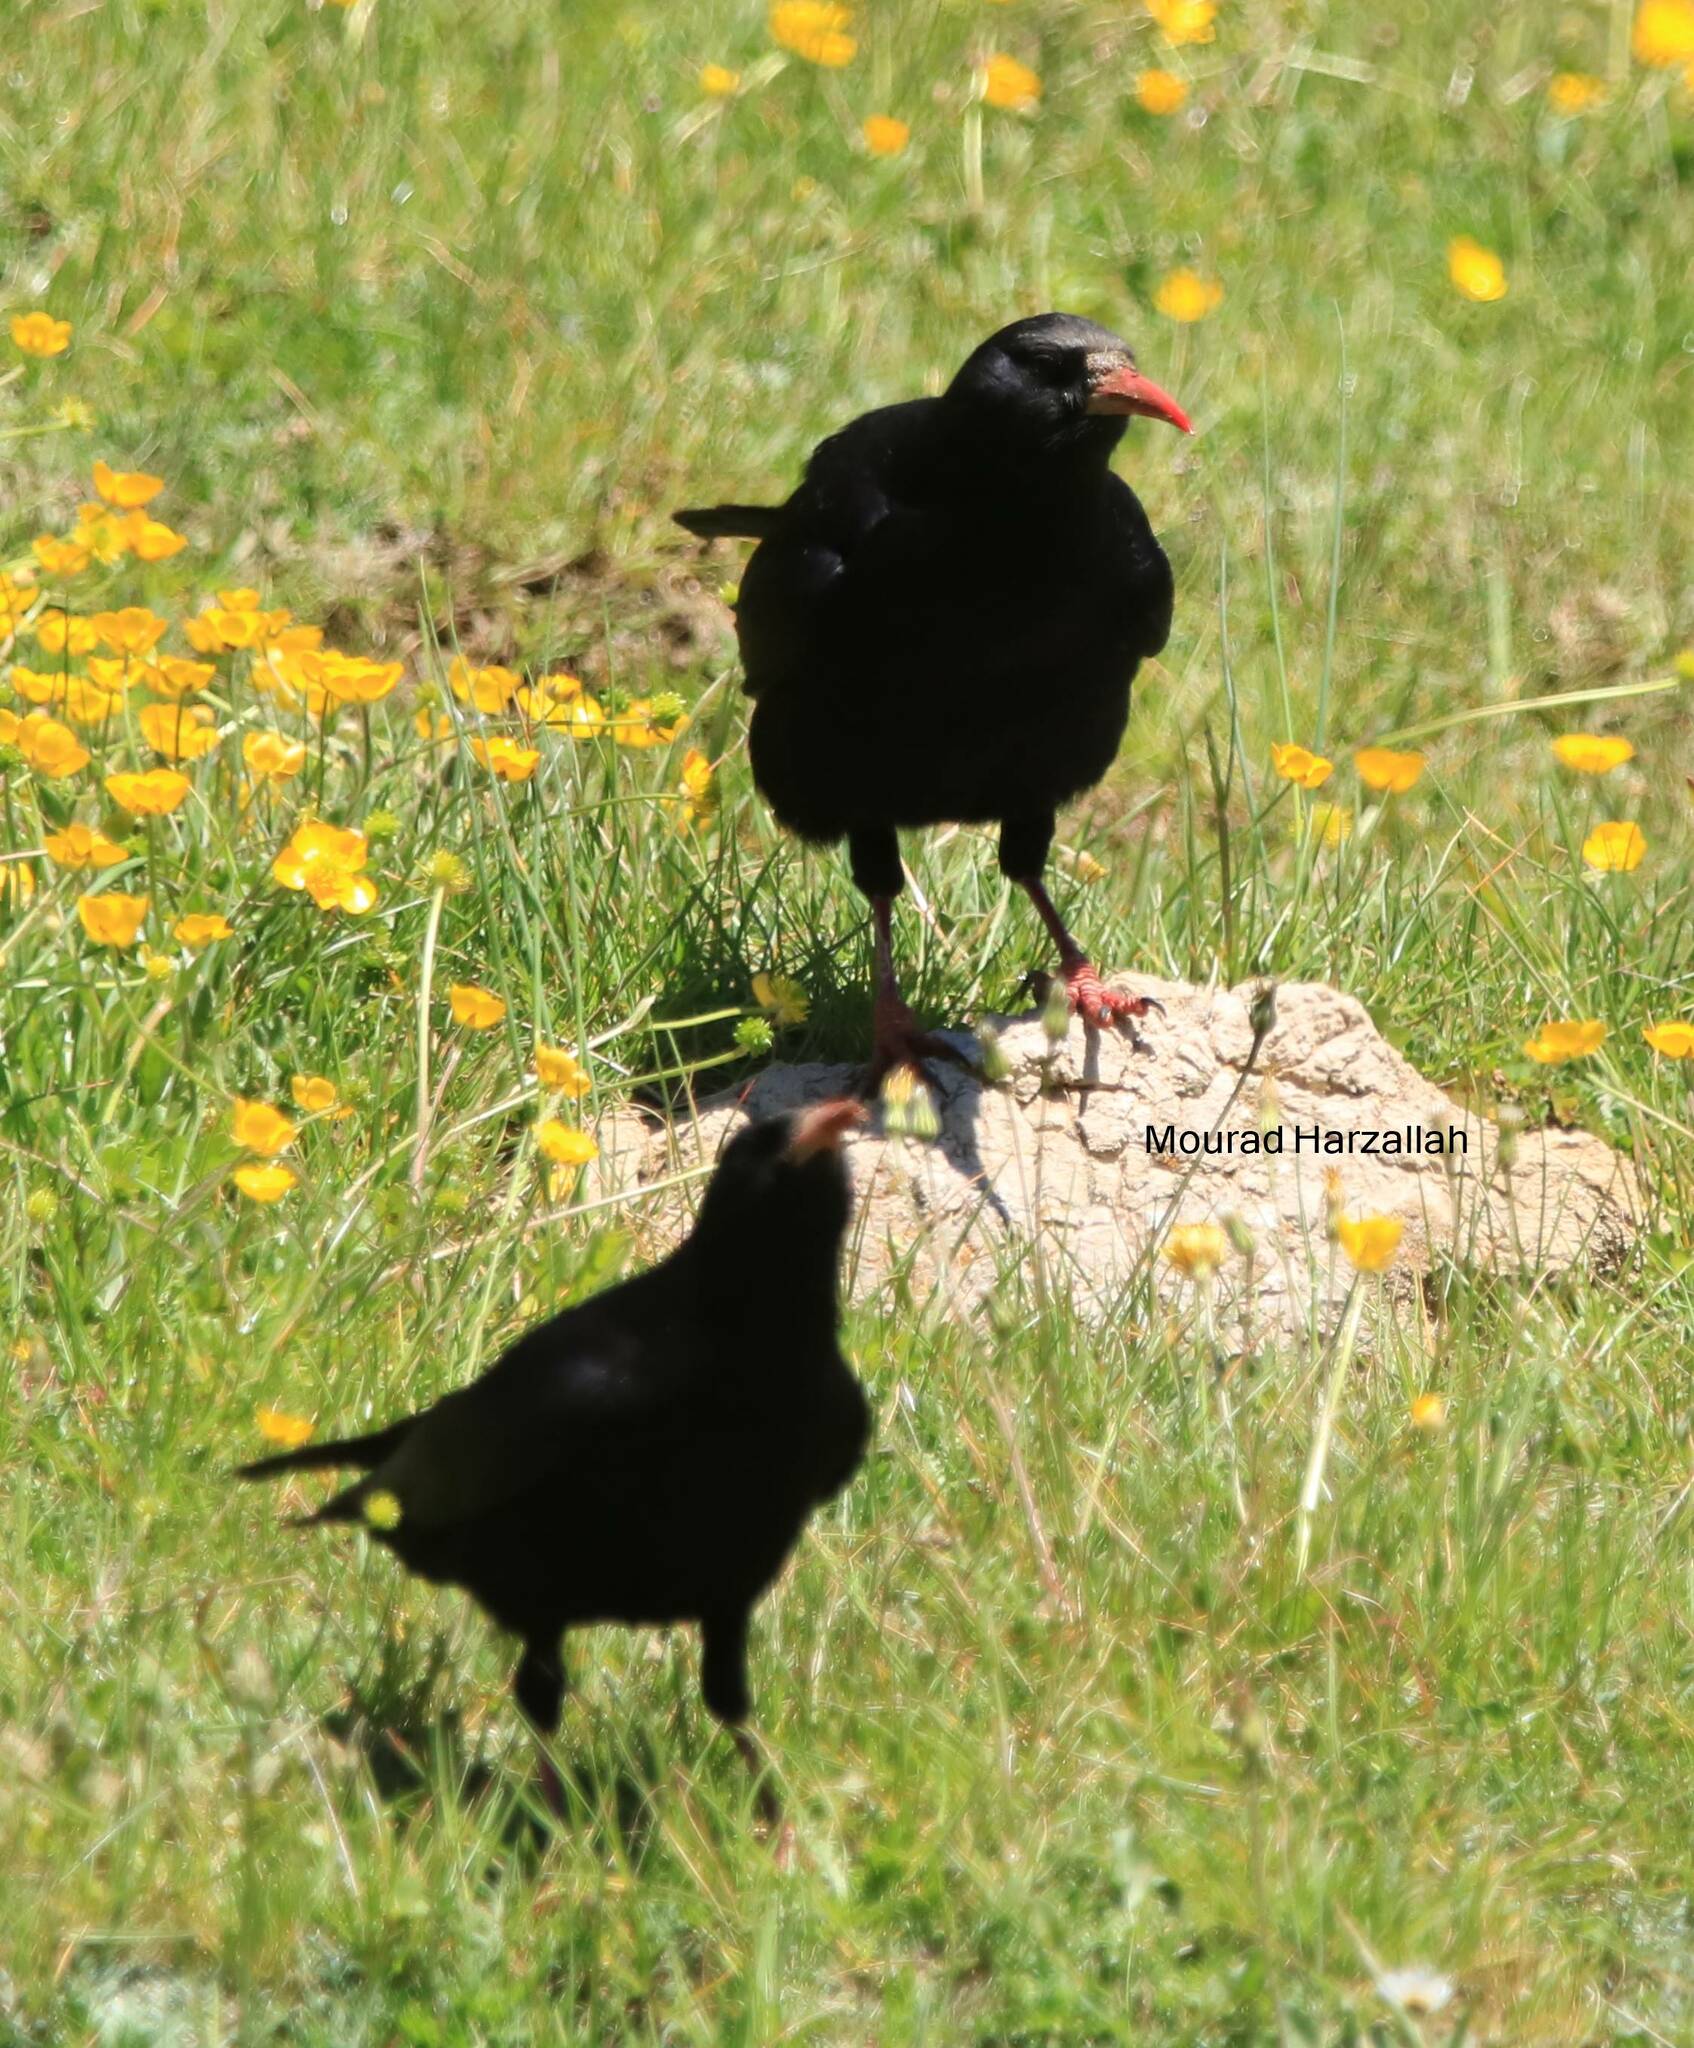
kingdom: Animalia
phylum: Chordata
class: Aves
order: Passeriformes
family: Corvidae
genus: Pyrrhocorax
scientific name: Pyrrhocorax pyrrhocorax
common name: Red-billed chough
